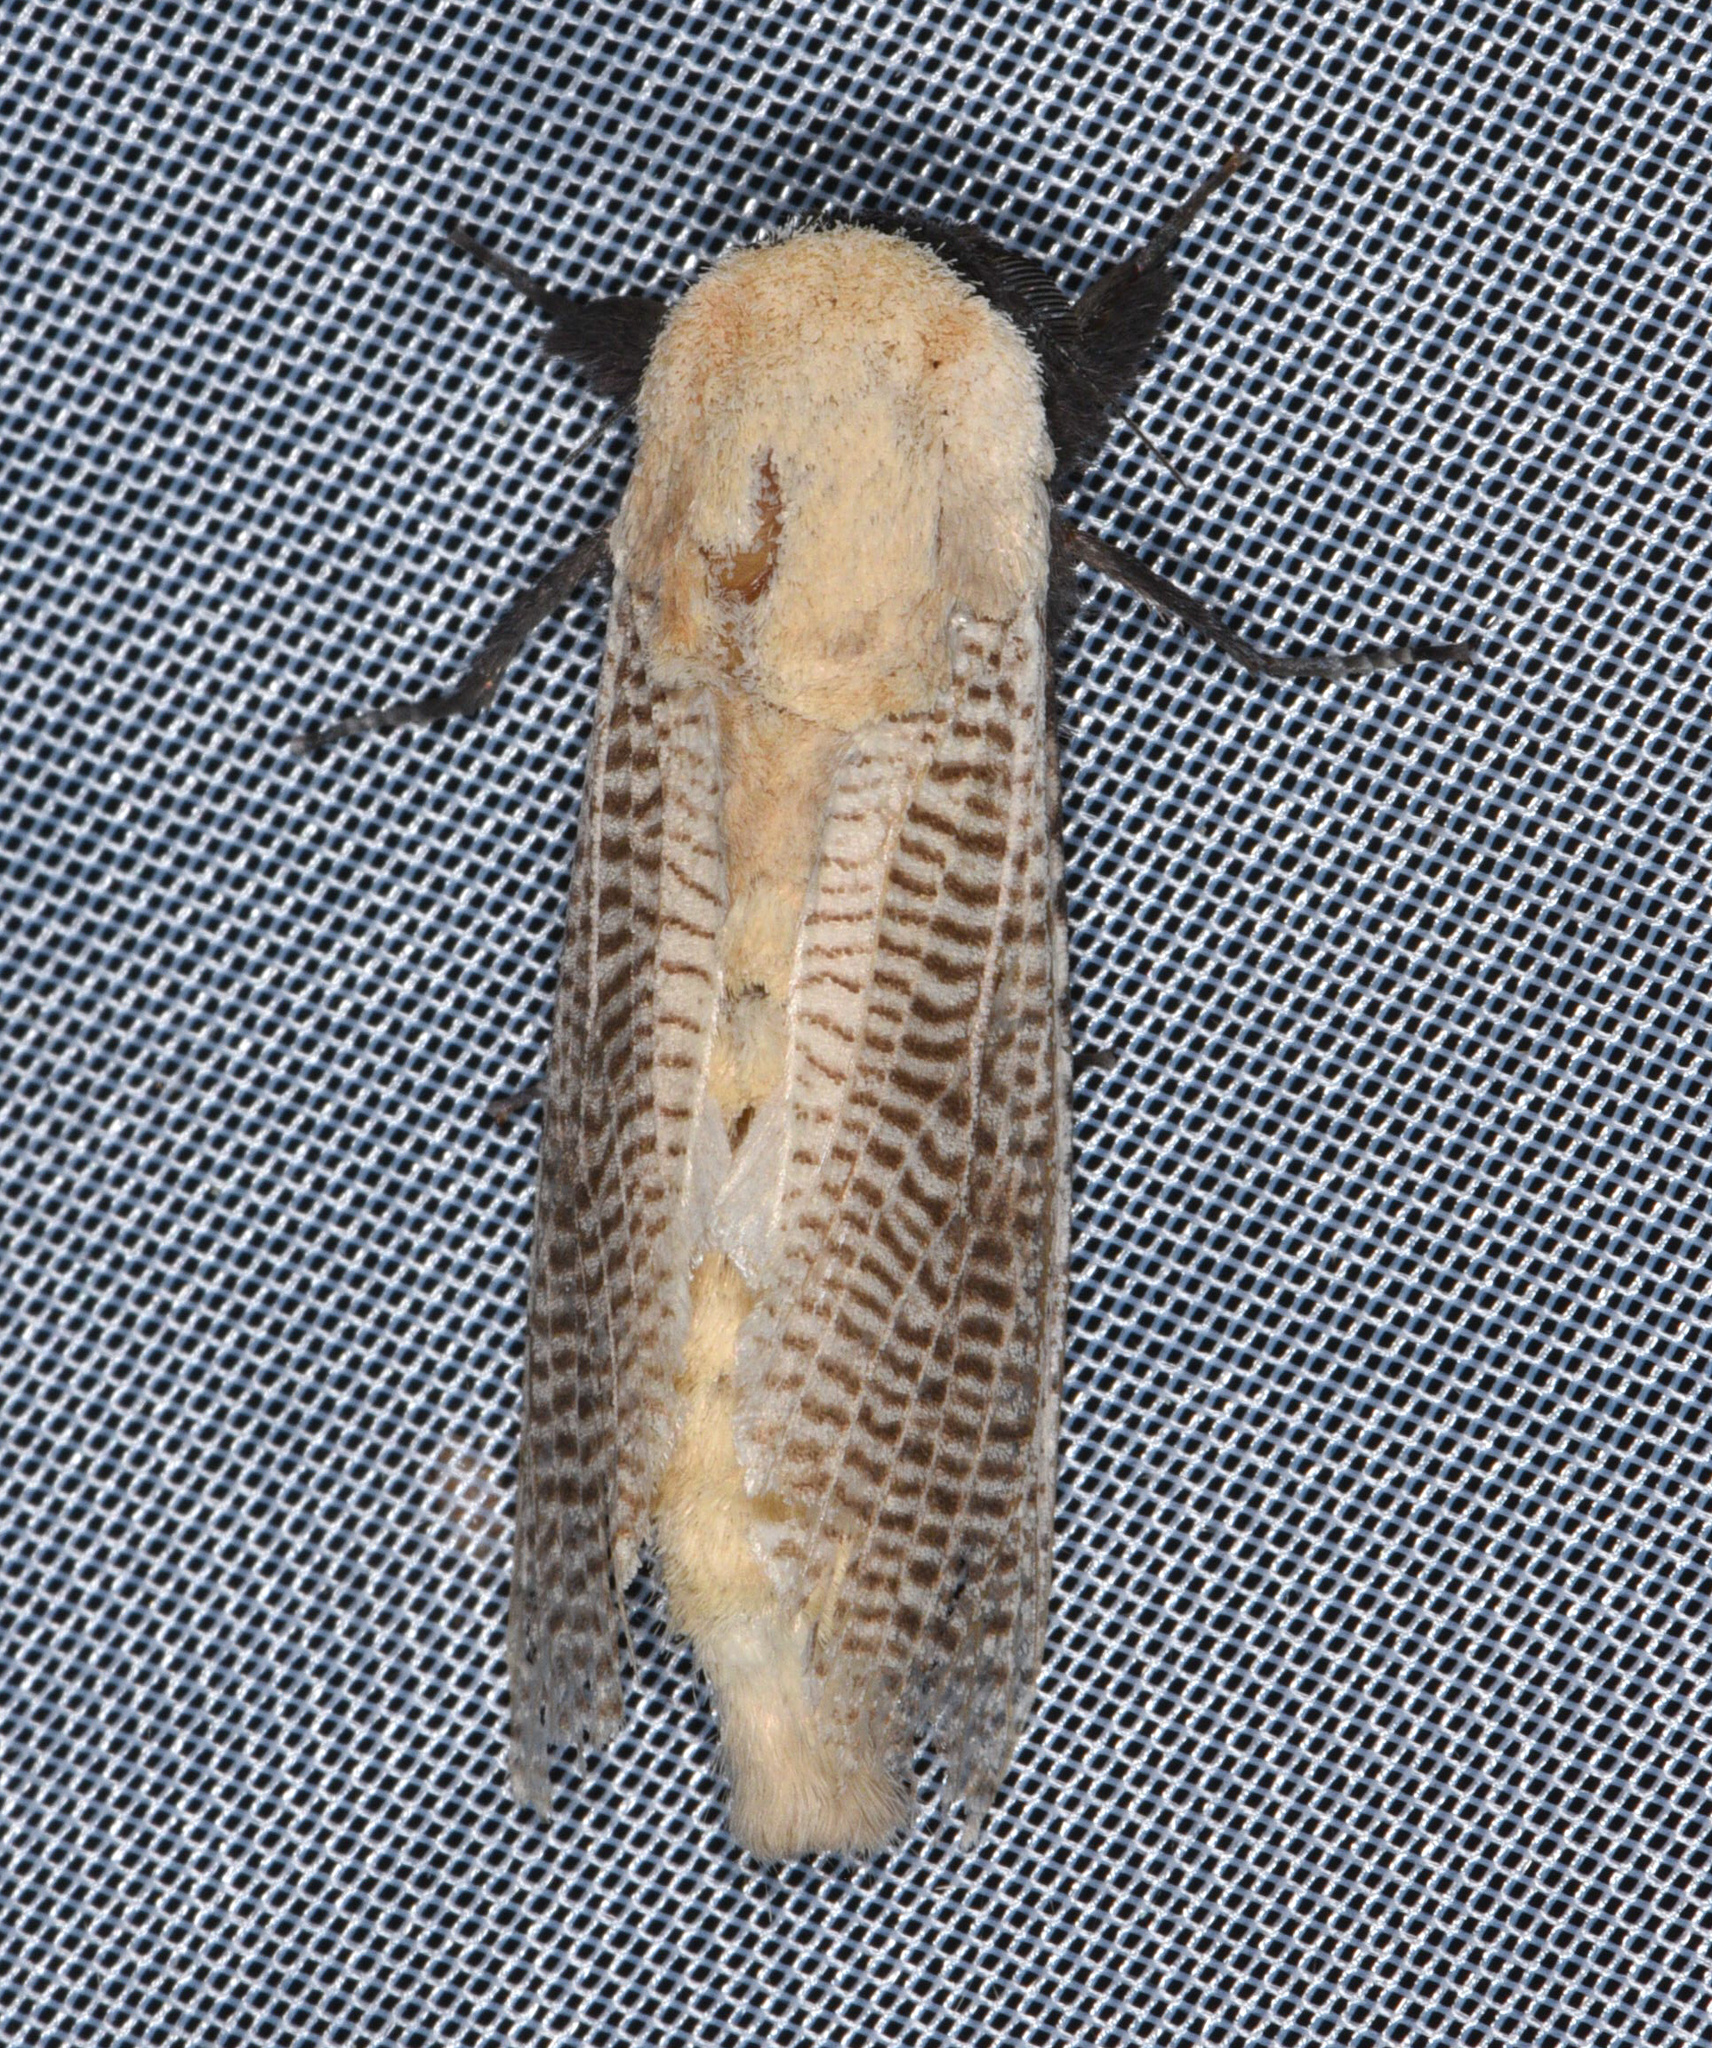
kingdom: Animalia
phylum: Arthropoda
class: Insecta
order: Lepidoptera
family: Cossidae
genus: Morpheis
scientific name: Morpheis
